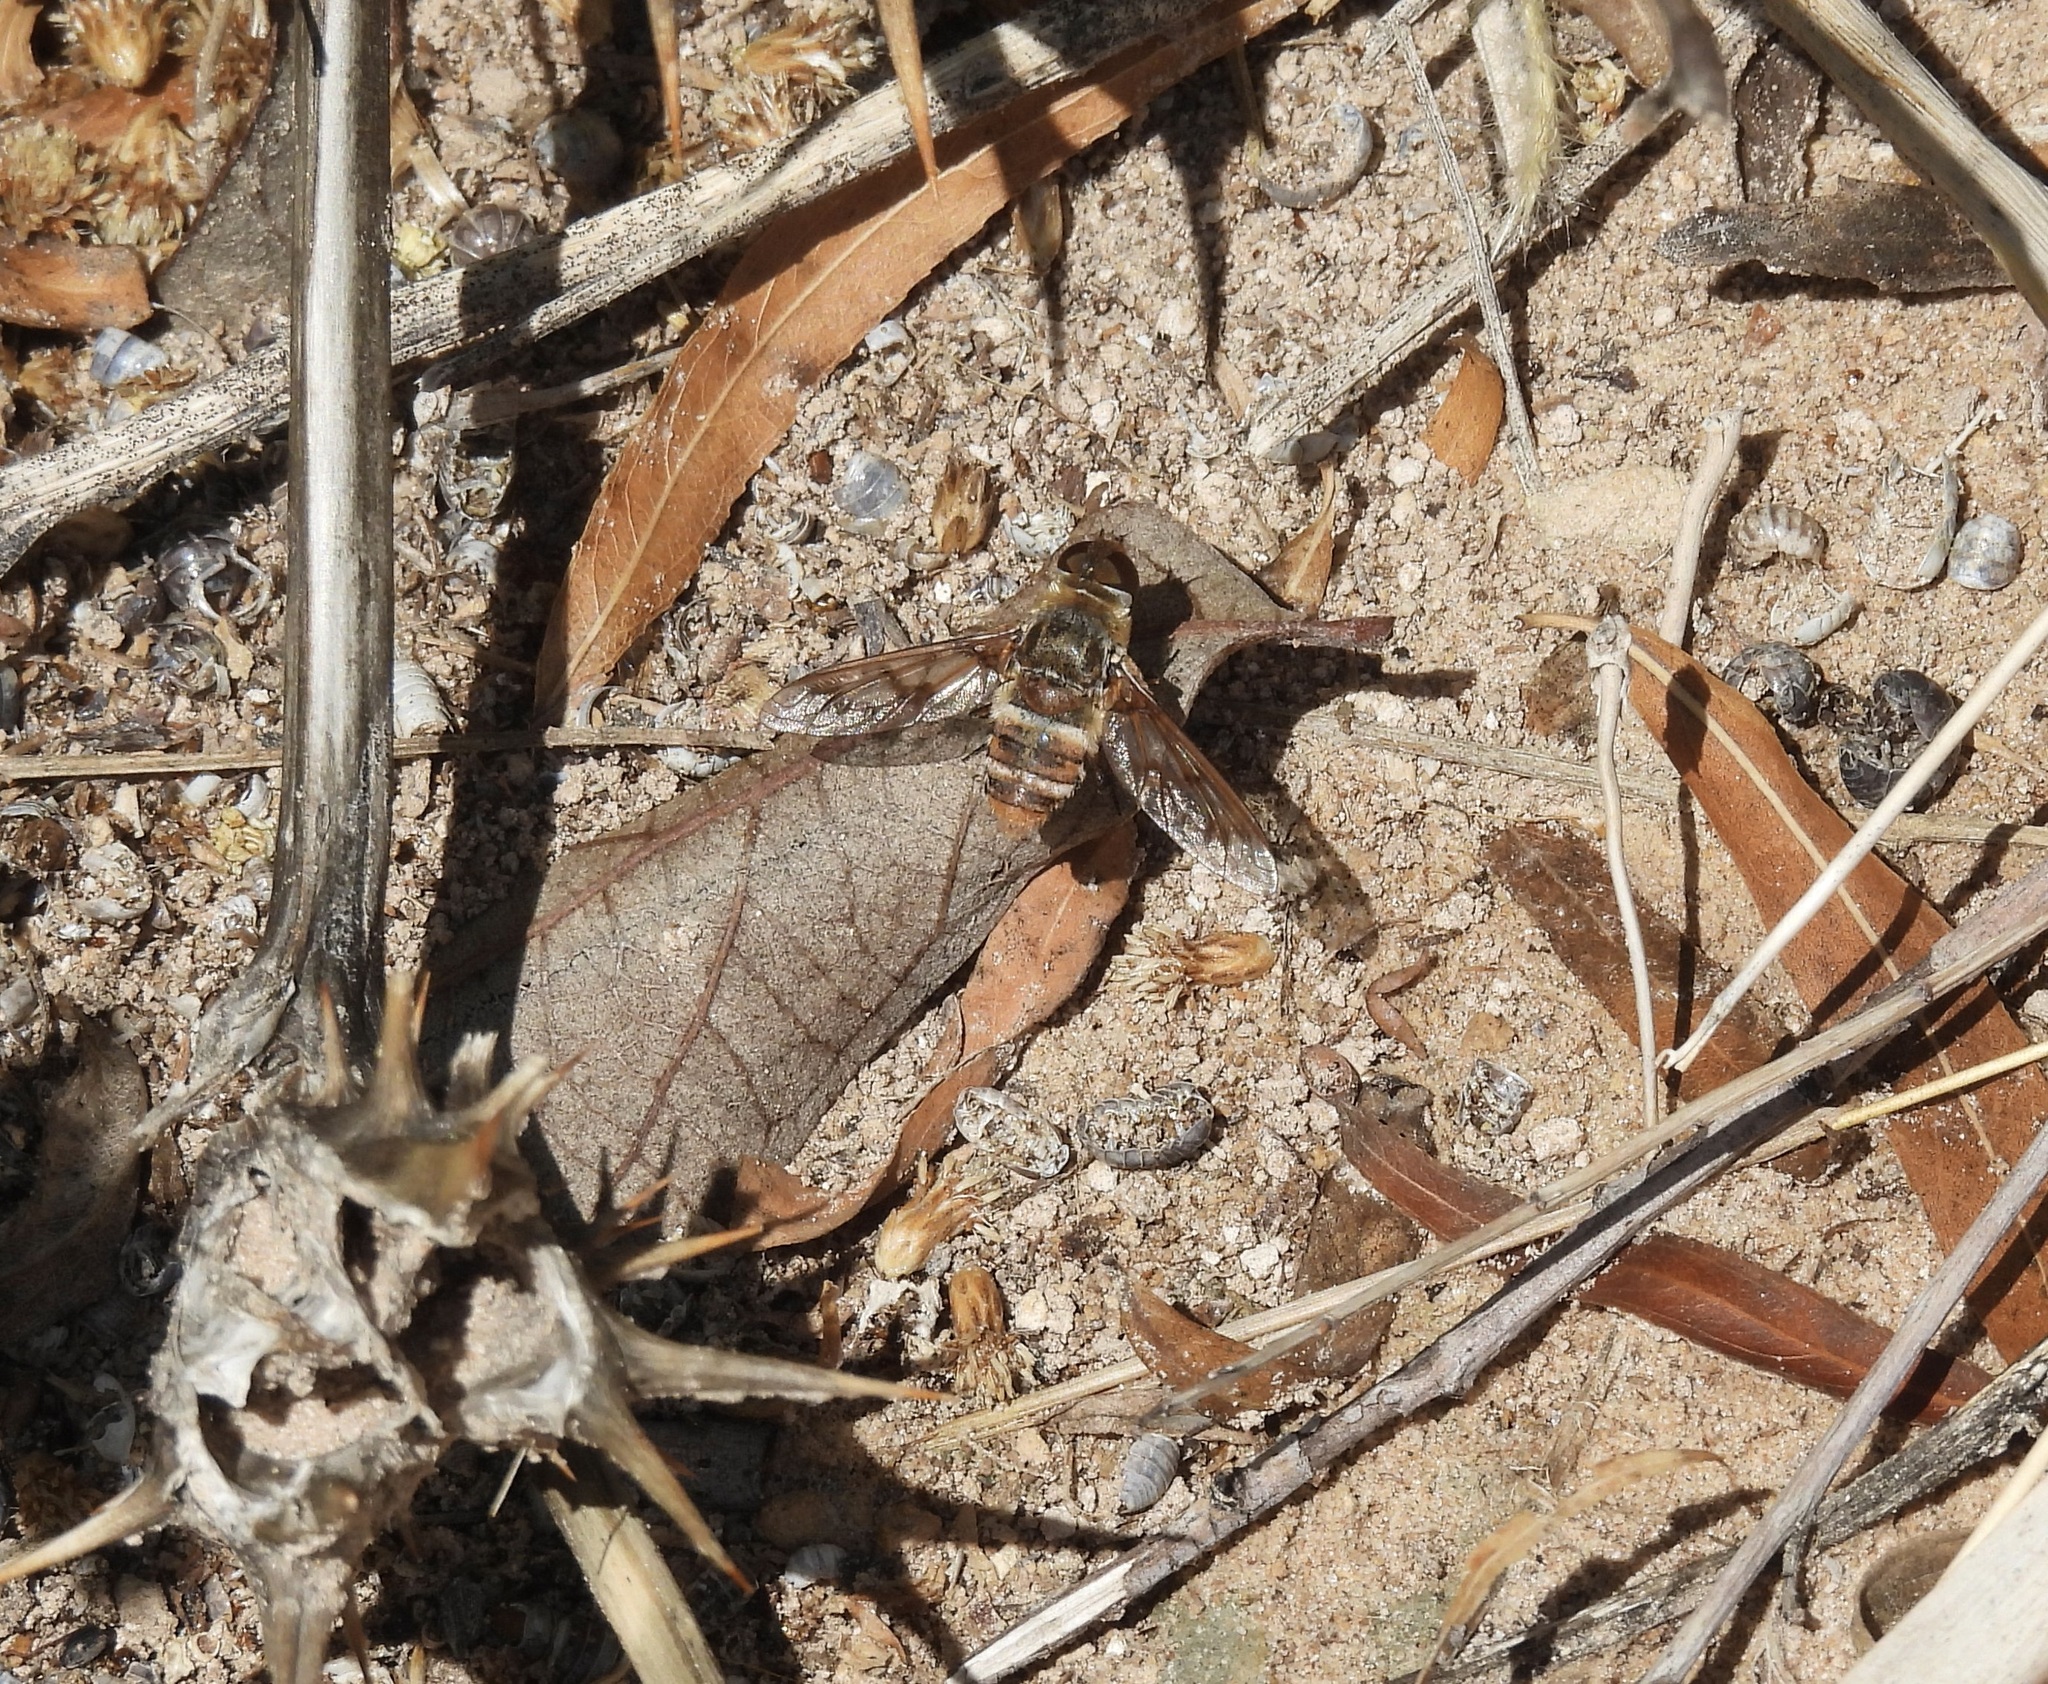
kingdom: Animalia
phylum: Arthropoda
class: Insecta
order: Diptera
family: Bombyliidae
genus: Exoprosopa
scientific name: Exoprosopa butleri
